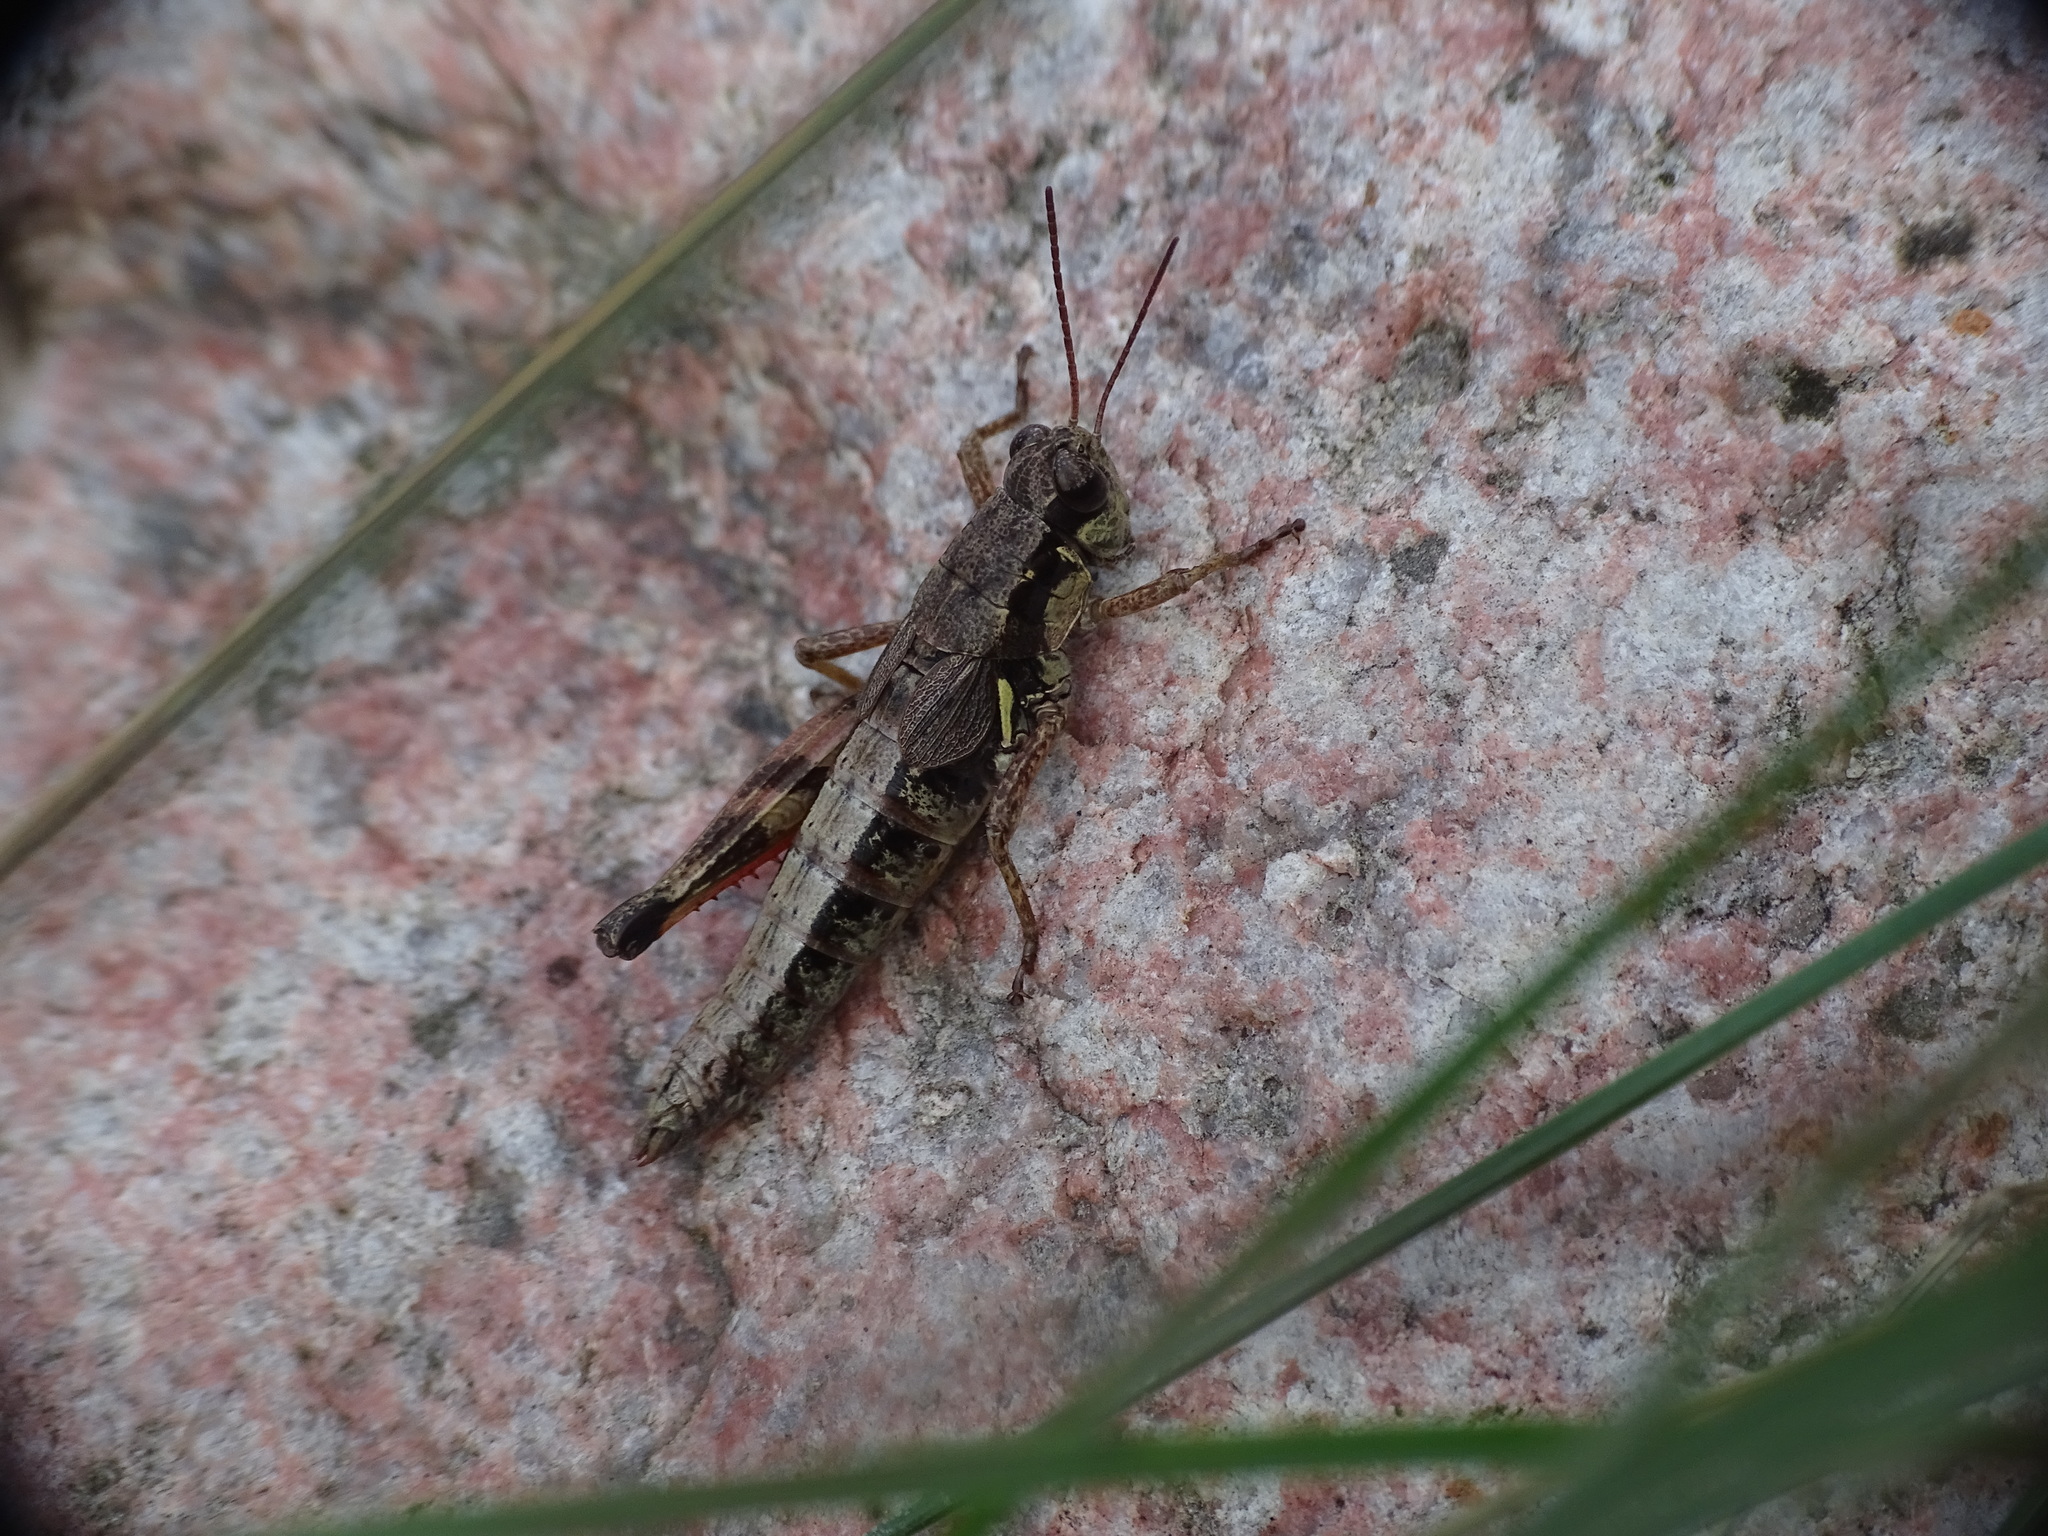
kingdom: Animalia
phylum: Arthropoda
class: Insecta
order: Orthoptera
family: Acrididae
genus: Melanoplus
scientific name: Melanoplus islandicus
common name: Island locust
